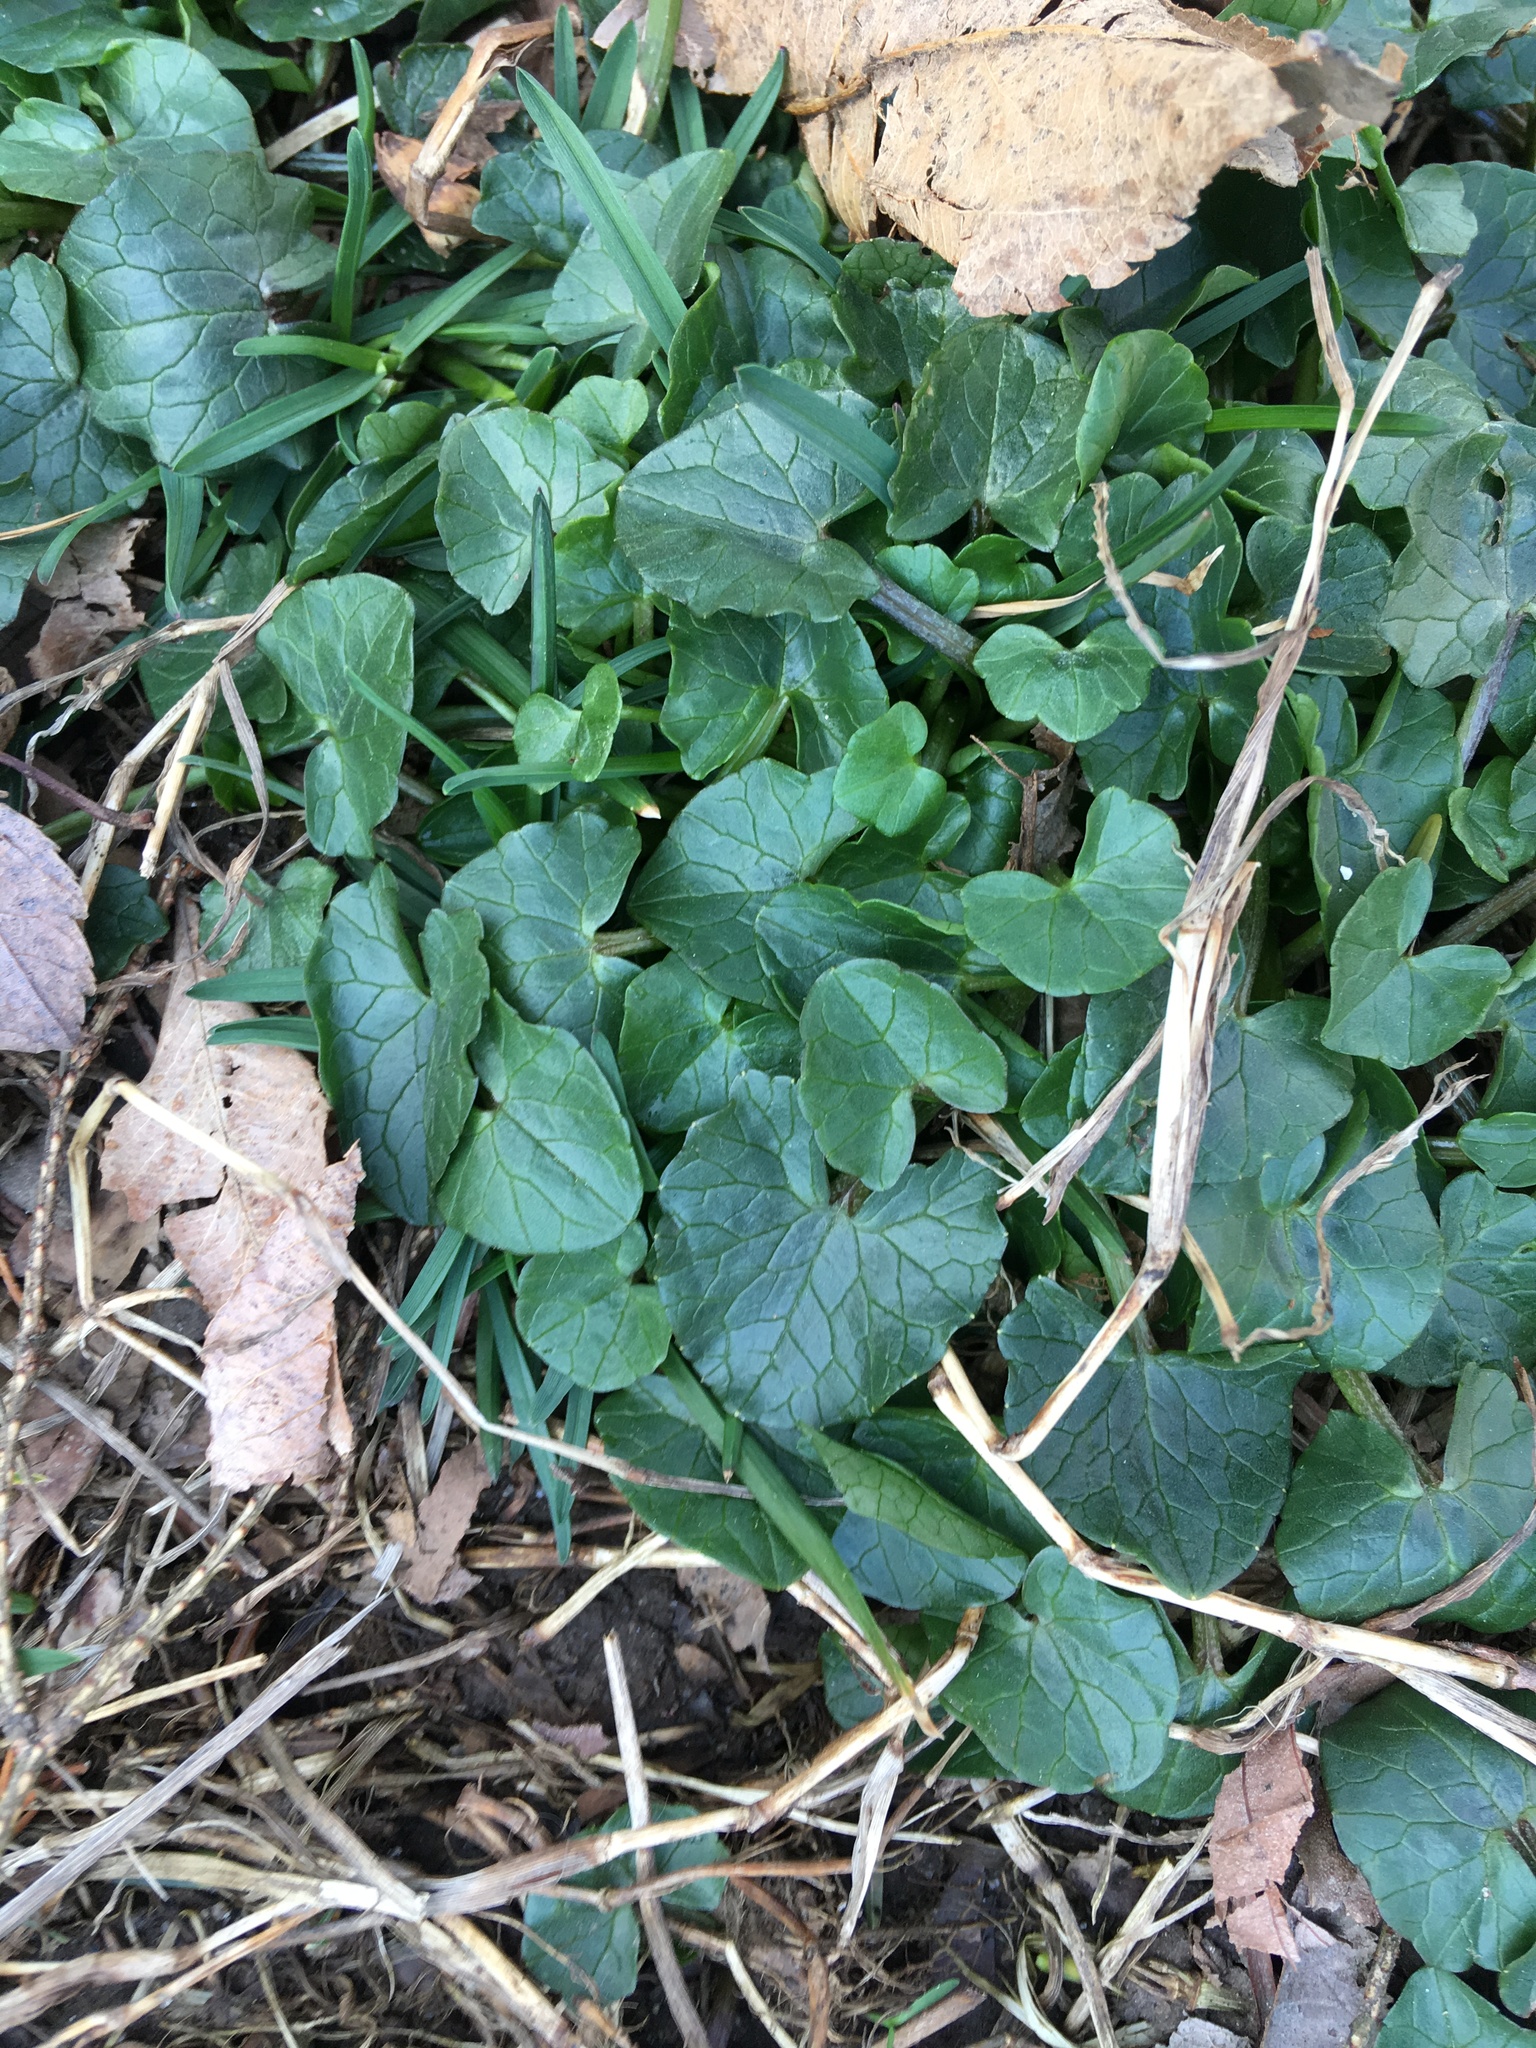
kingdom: Plantae
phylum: Tracheophyta
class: Magnoliopsida
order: Ranunculales
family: Ranunculaceae
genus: Ficaria
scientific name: Ficaria verna
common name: Lesser celandine
